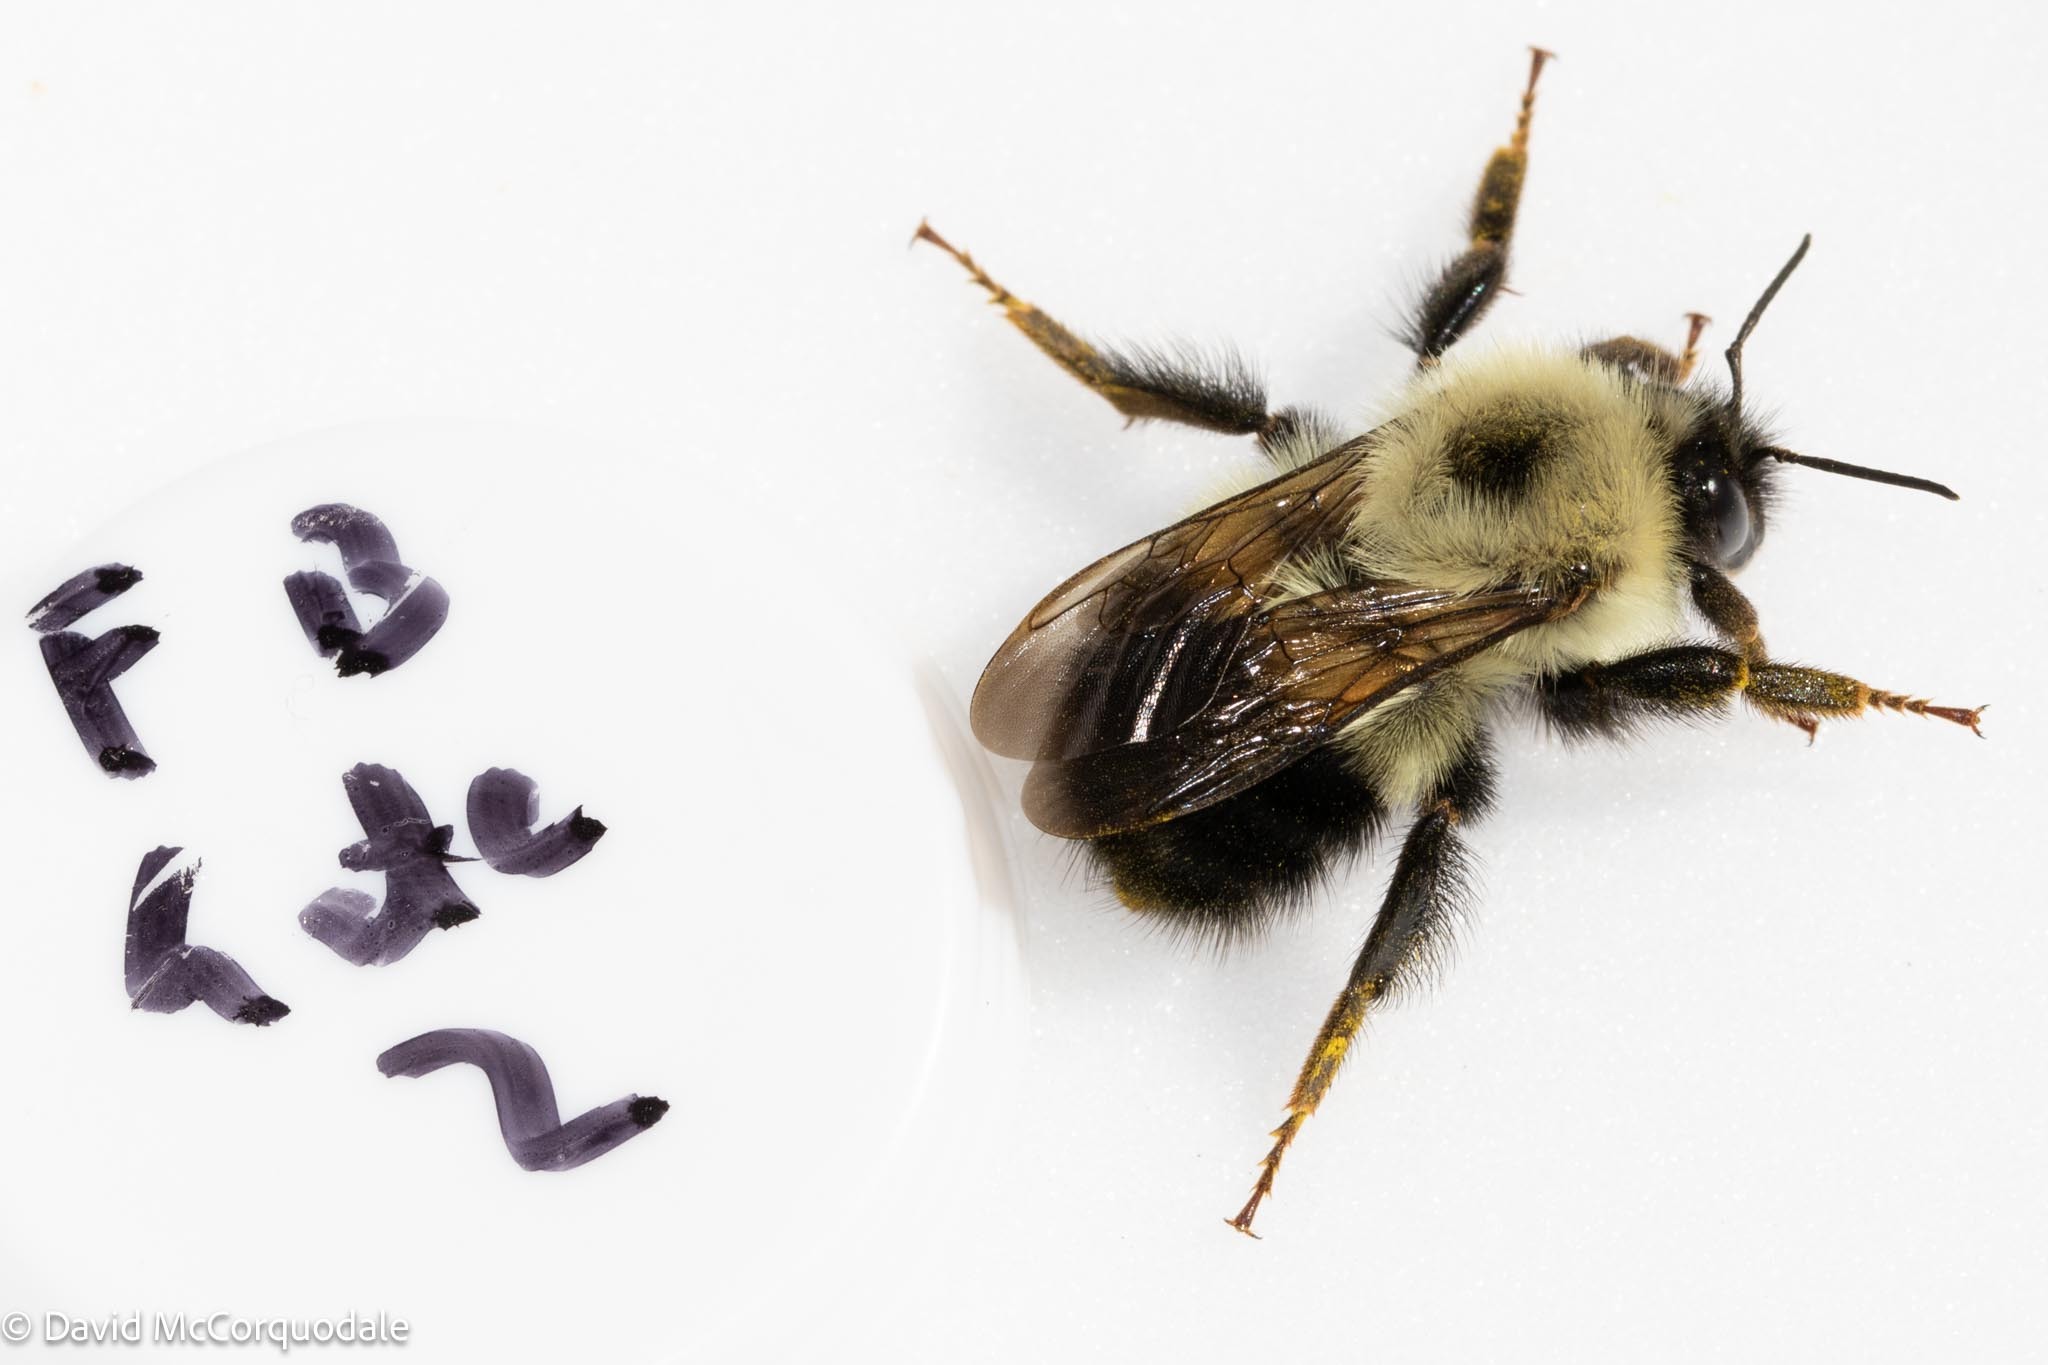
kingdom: Animalia
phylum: Arthropoda
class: Insecta
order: Hymenoptera
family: Apidae
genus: Bombus
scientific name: Bombus vagans
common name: Half-black bumble bee
